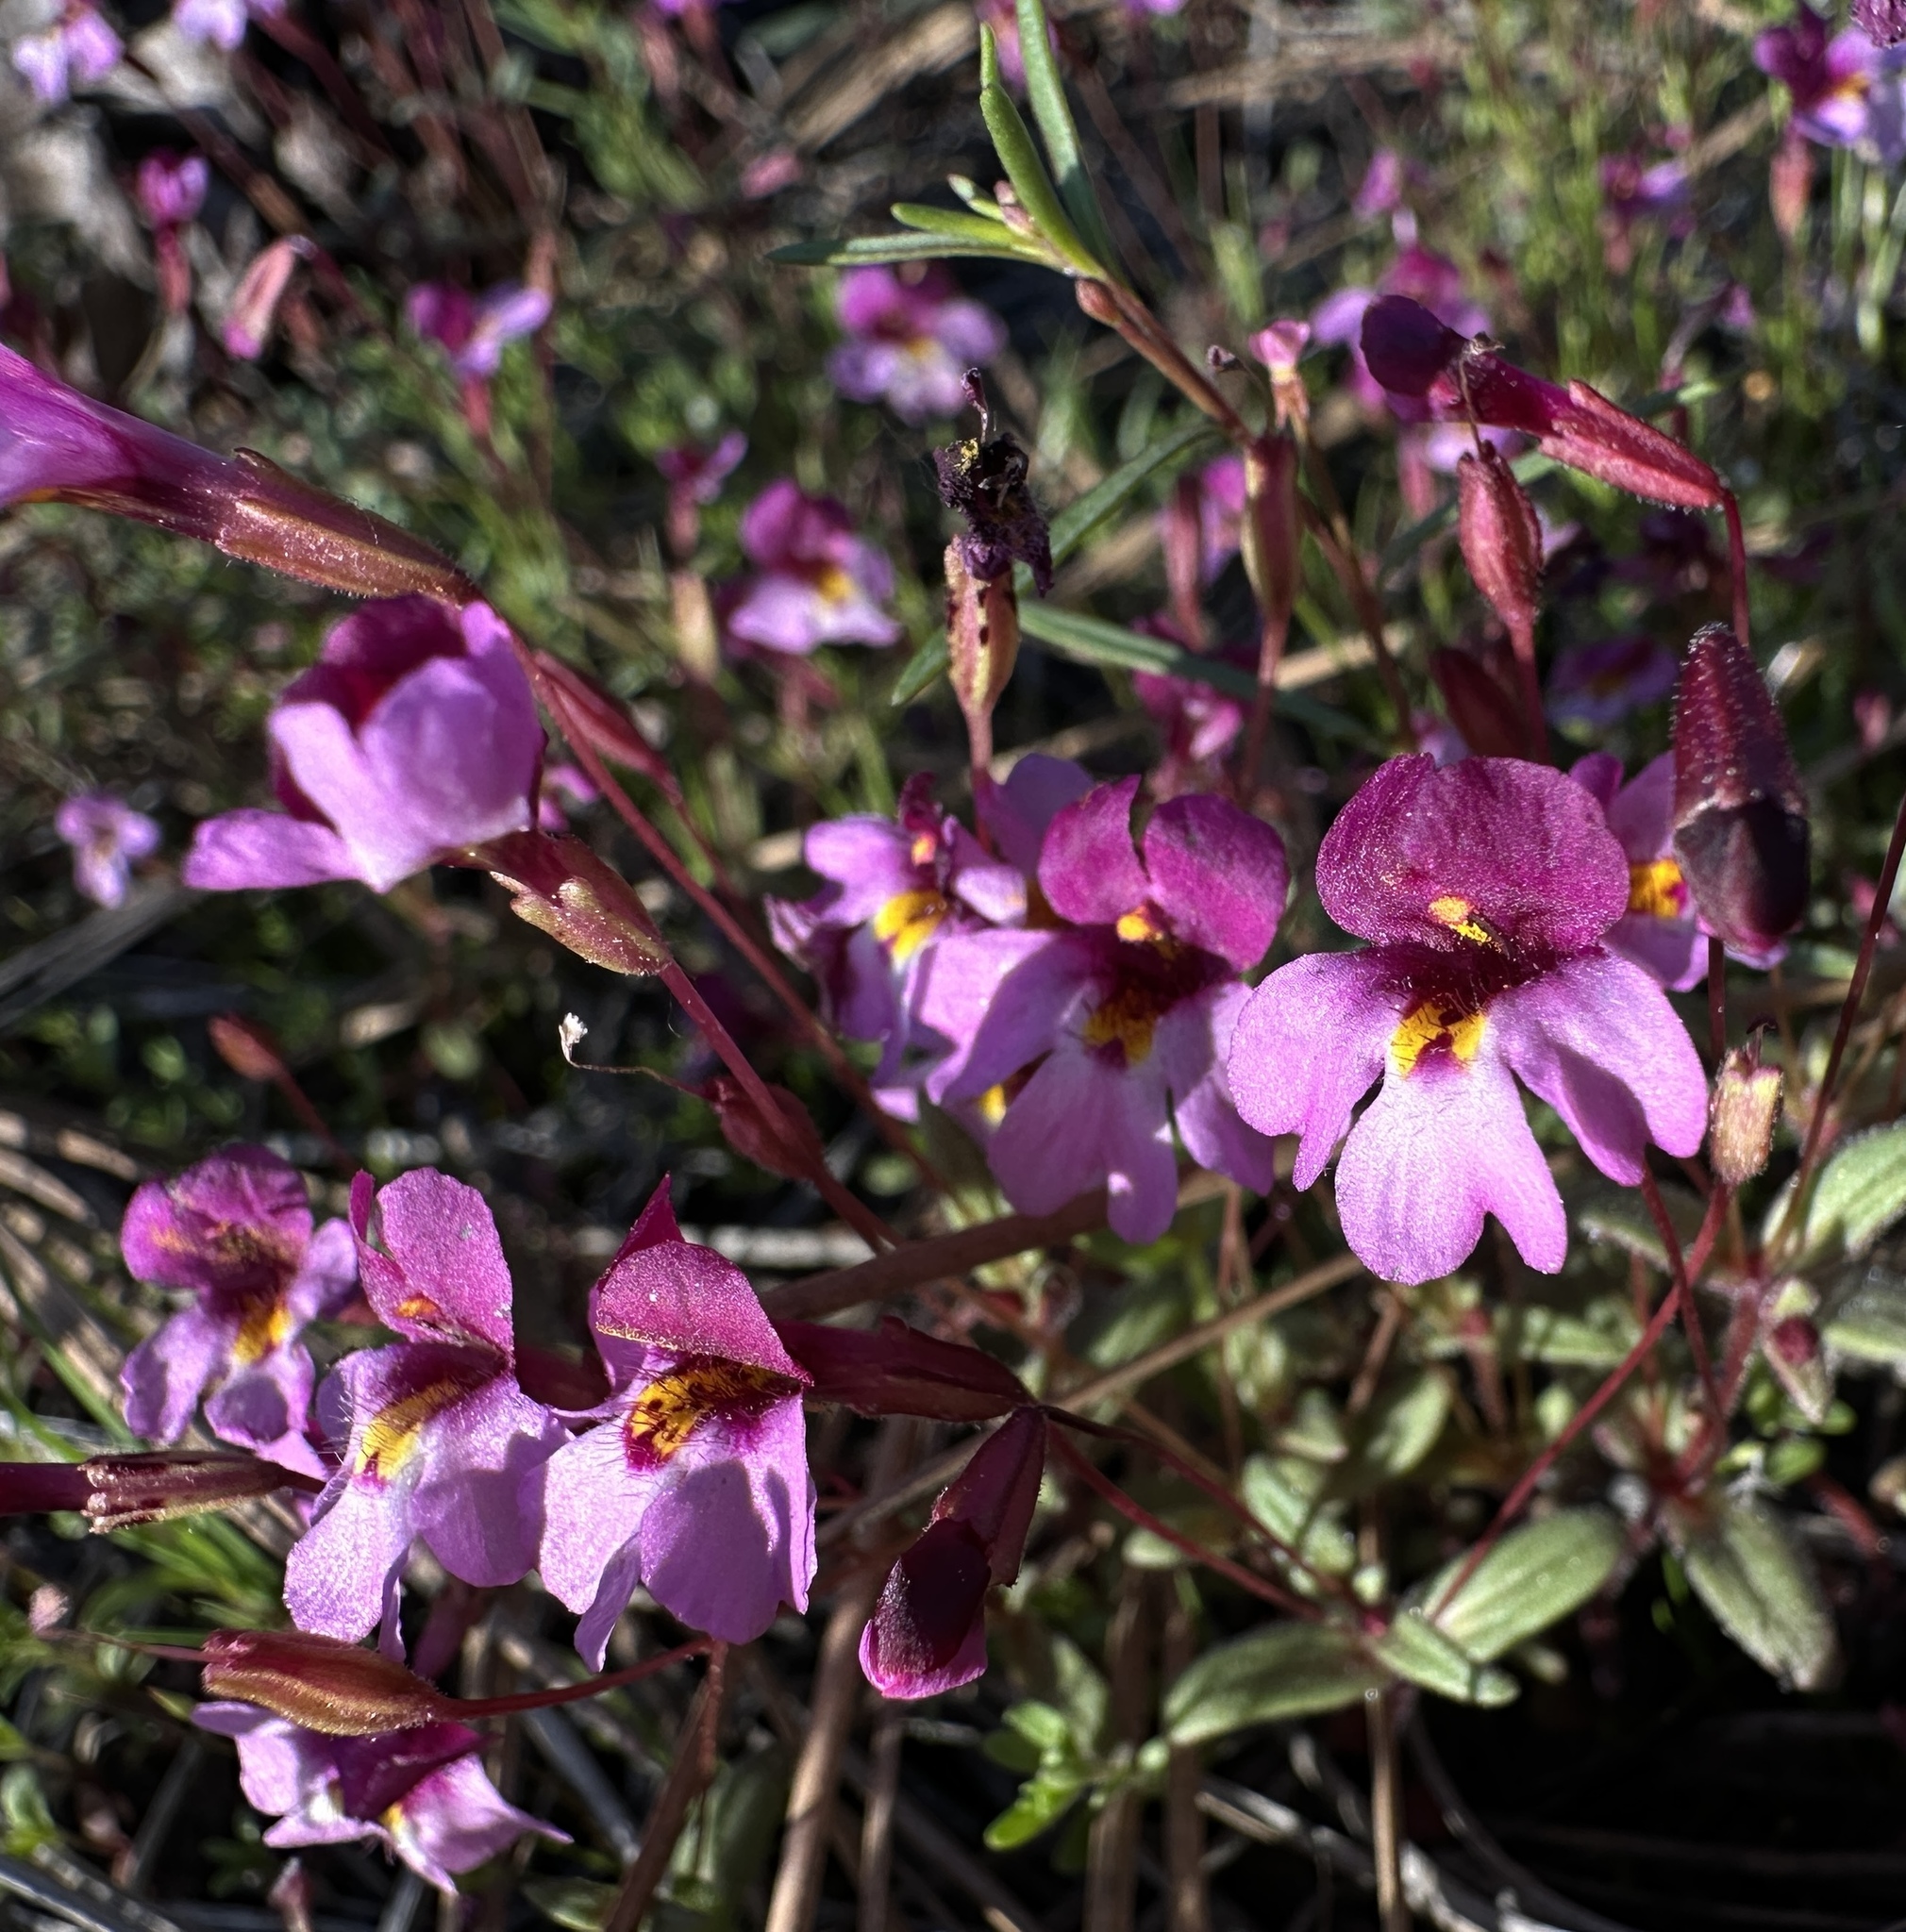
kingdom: Plantae
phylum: Tracheophyta
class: Magnoliopsida
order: Lamiales
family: Phrymaceae
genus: Erythranthe
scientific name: Erythranthe purpurea
